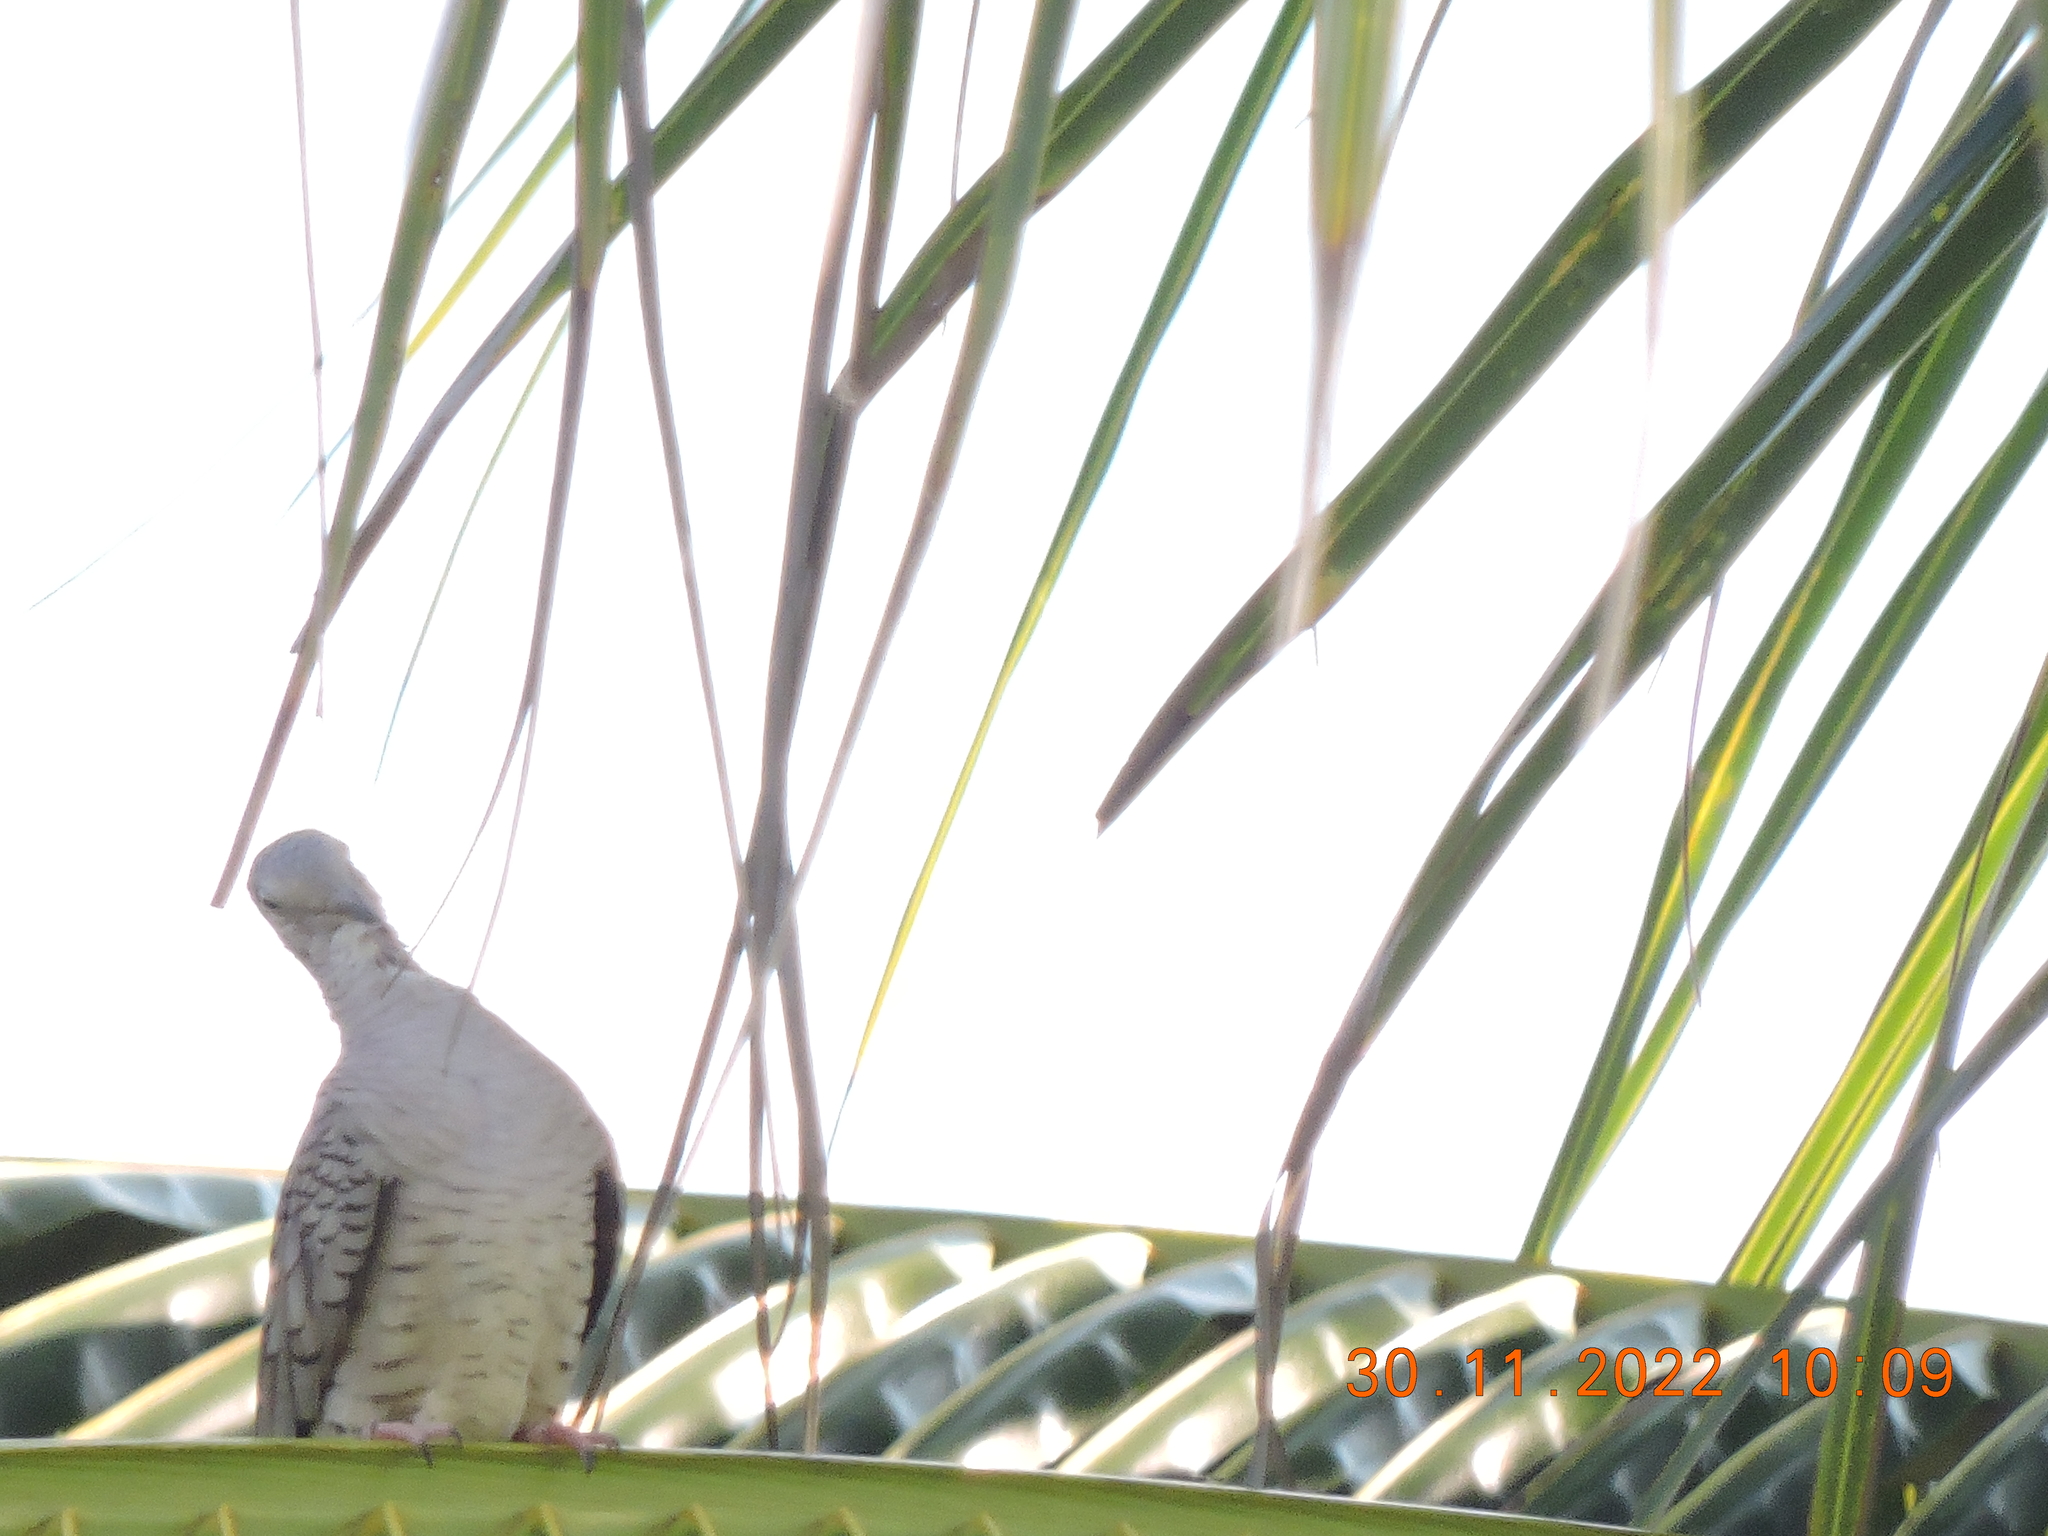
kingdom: Animalia
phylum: Chordata
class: Aves
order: Columbiformes
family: Columbidae
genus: Columbina
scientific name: Columbina inca
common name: Inca dove
